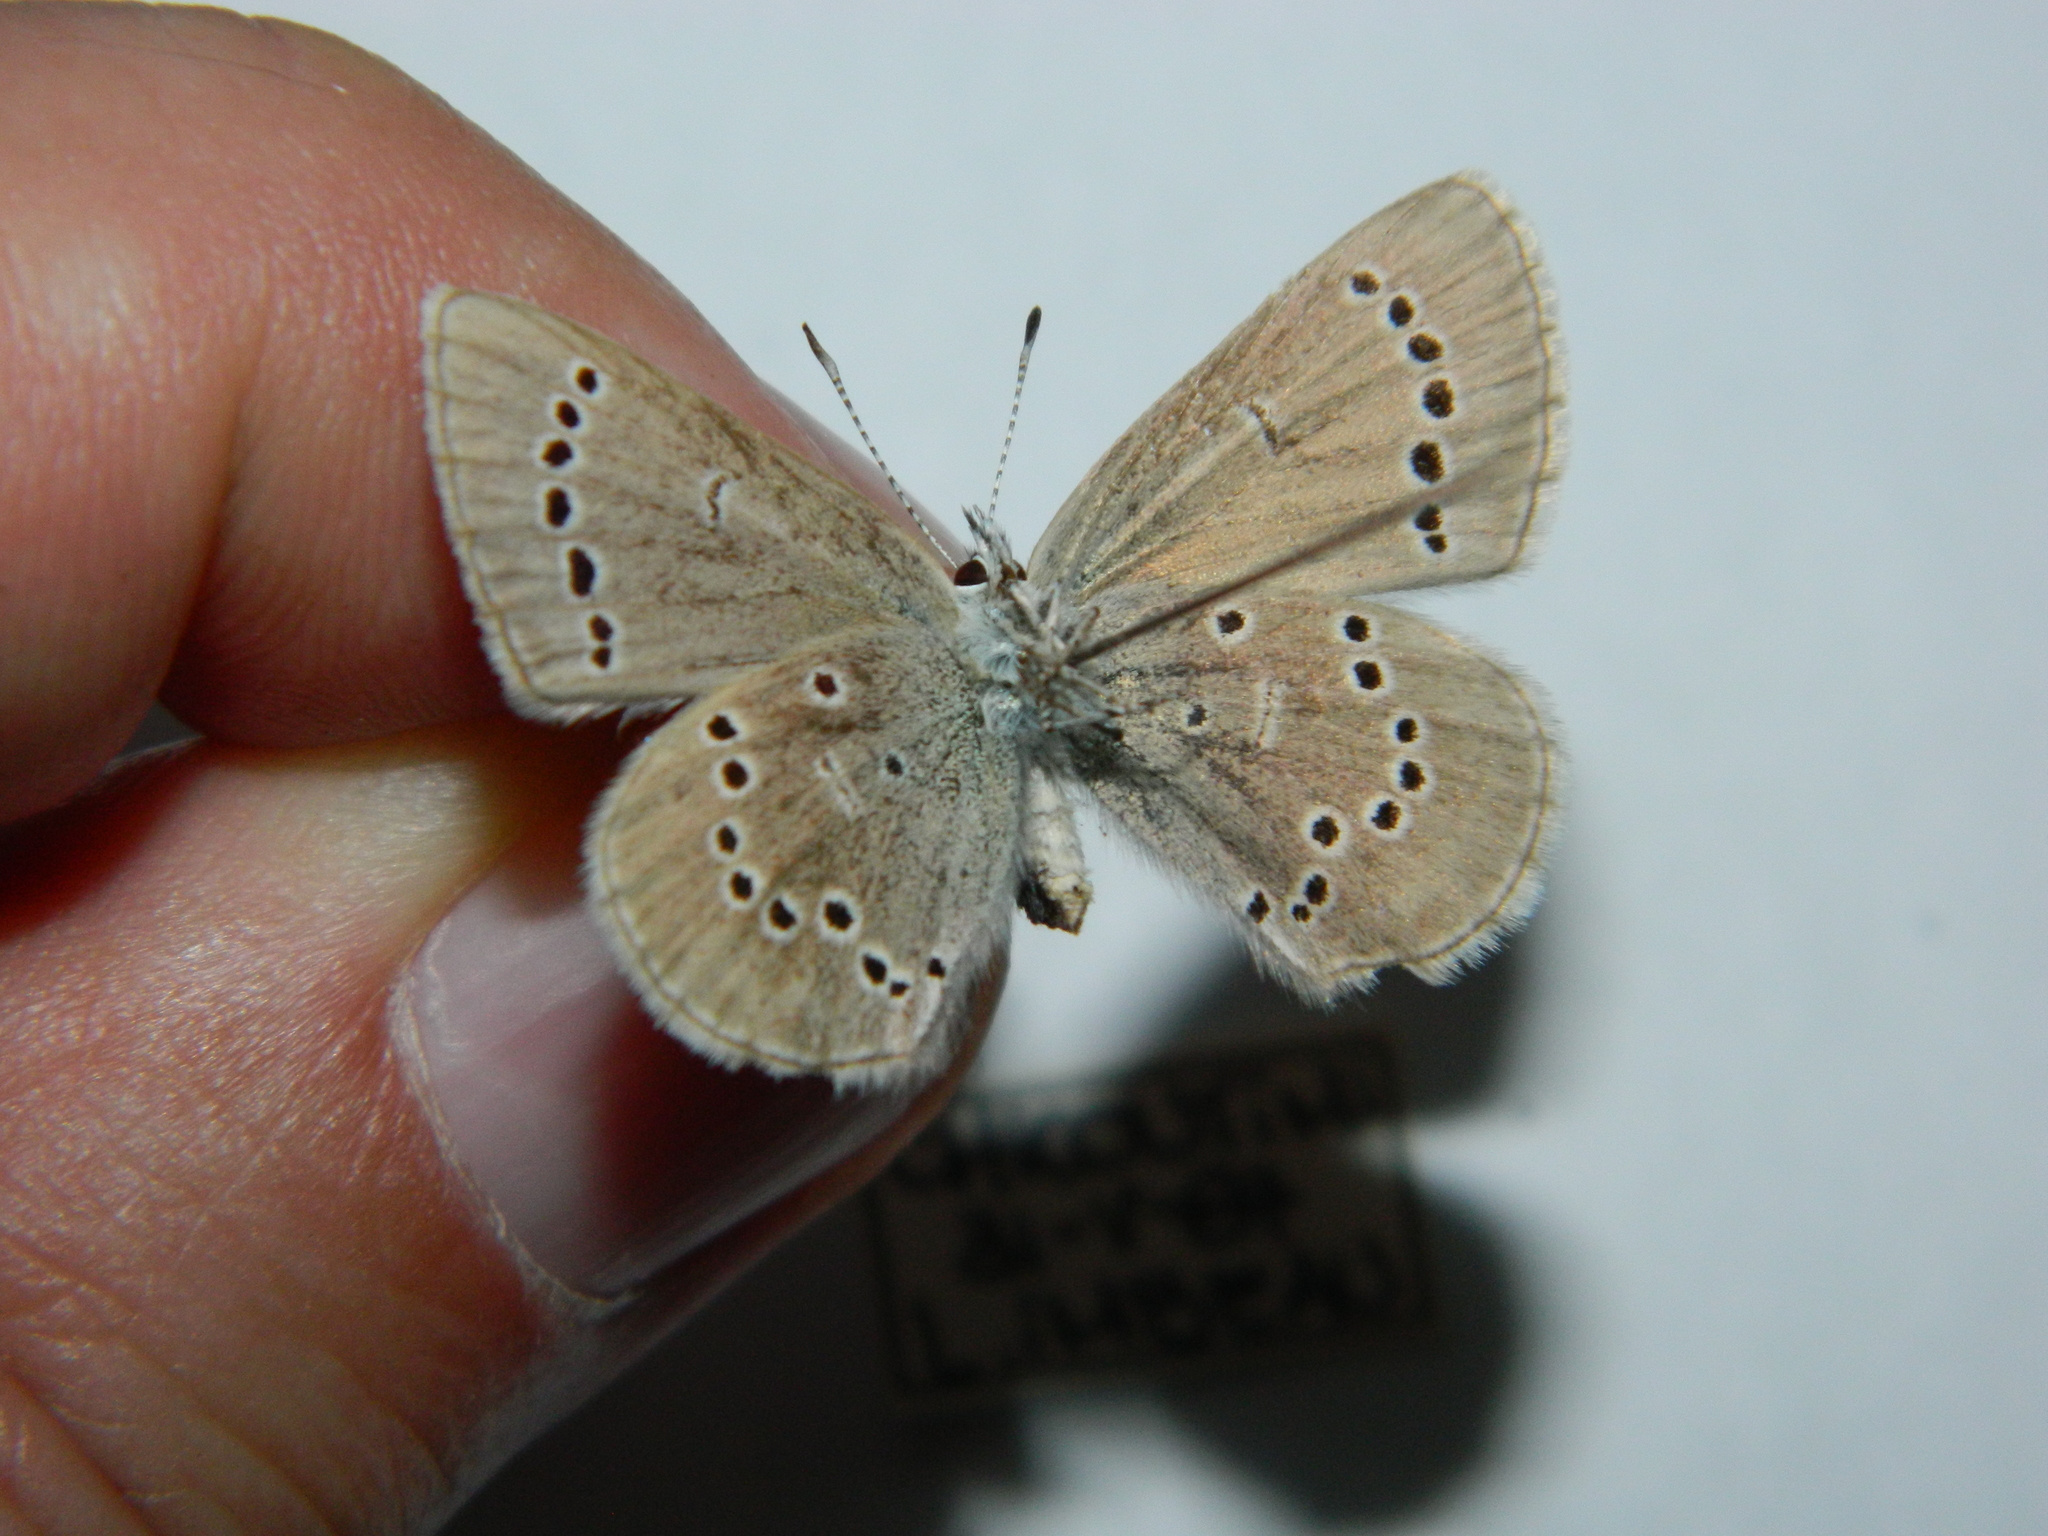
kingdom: Animalia
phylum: Arthropoda
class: Insecta
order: Lepidoptera
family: Lycaenidae
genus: Glaucopsyche
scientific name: Glaucopsyche lygdamus
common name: Silvery blue
